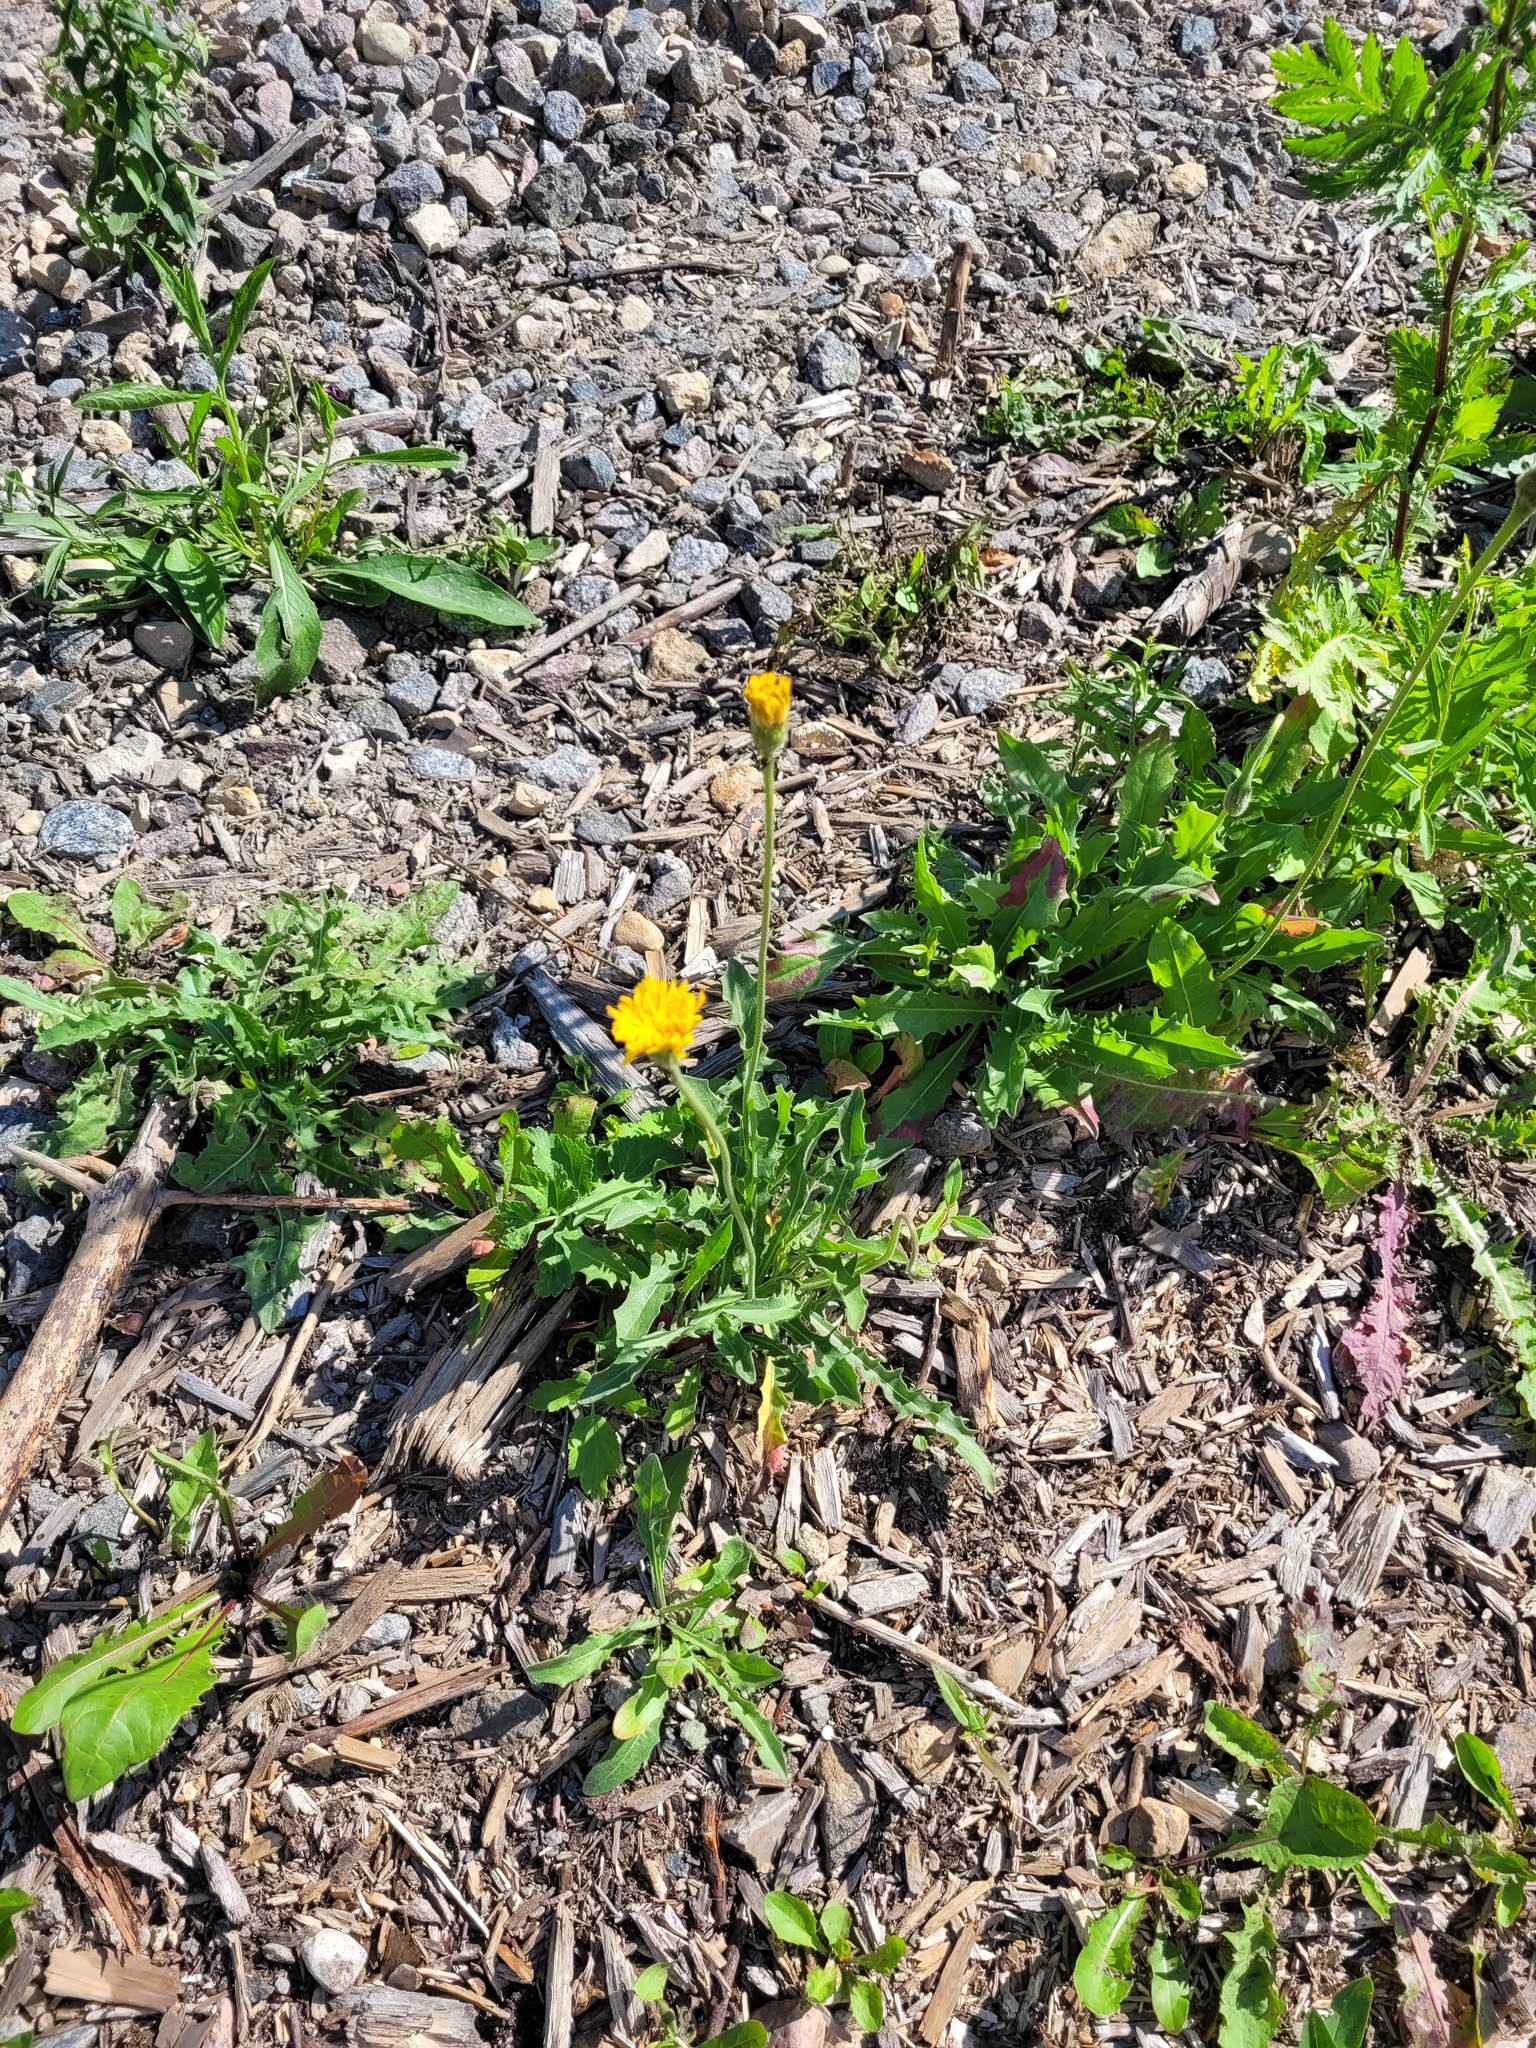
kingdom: Plantae
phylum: Tracheophyta
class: Magnoliopsida
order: Asterales
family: Asteraceae
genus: Leontodon
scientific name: Leontodon hispidus
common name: Rough hawkbit
